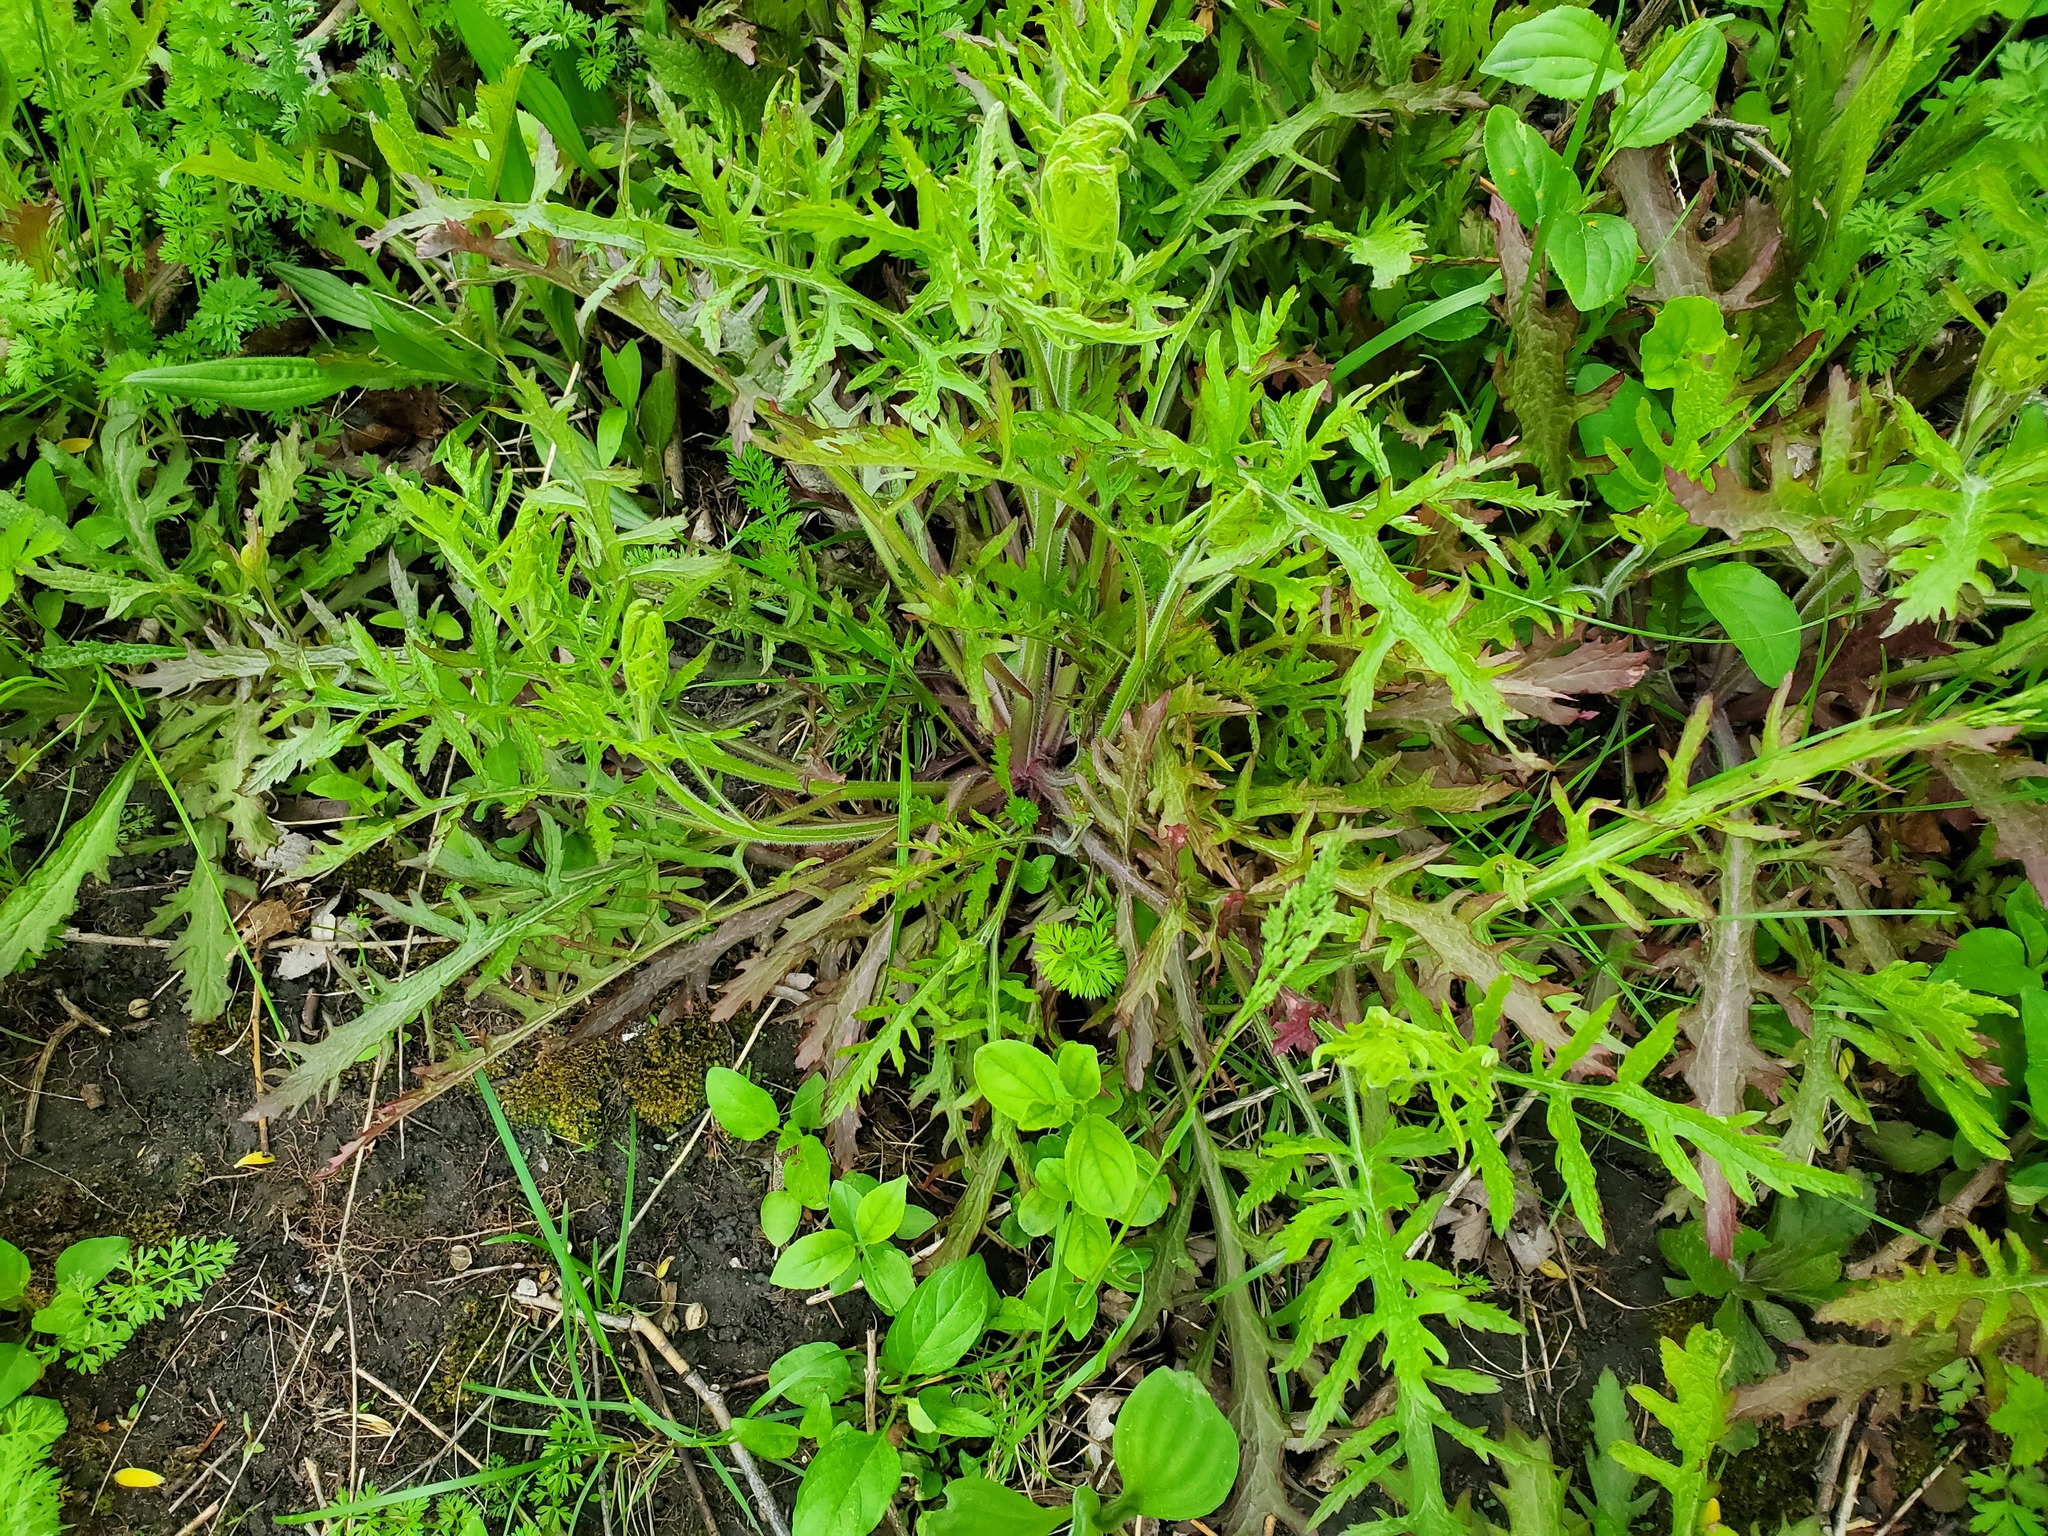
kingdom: Plantae
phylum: Tracheophyta
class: Magnoliopsida
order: Lamiales
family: Orobanchaceae
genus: Dasistoma
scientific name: Dasistoma macrophyllum
